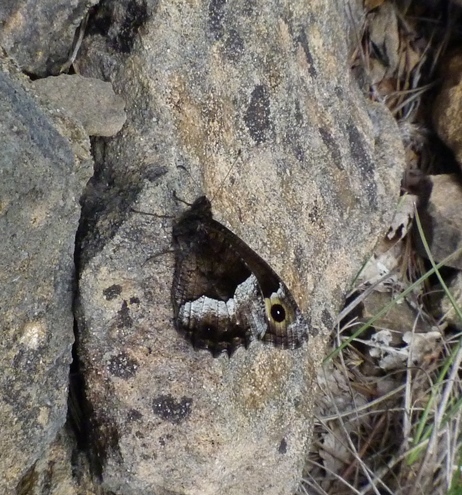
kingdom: Animalia
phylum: Arthropoda
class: Insecta
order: Lepidoptera
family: Nymphalidae
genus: Hipparchia
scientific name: Hipparchia hermione
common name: Rock grayling
